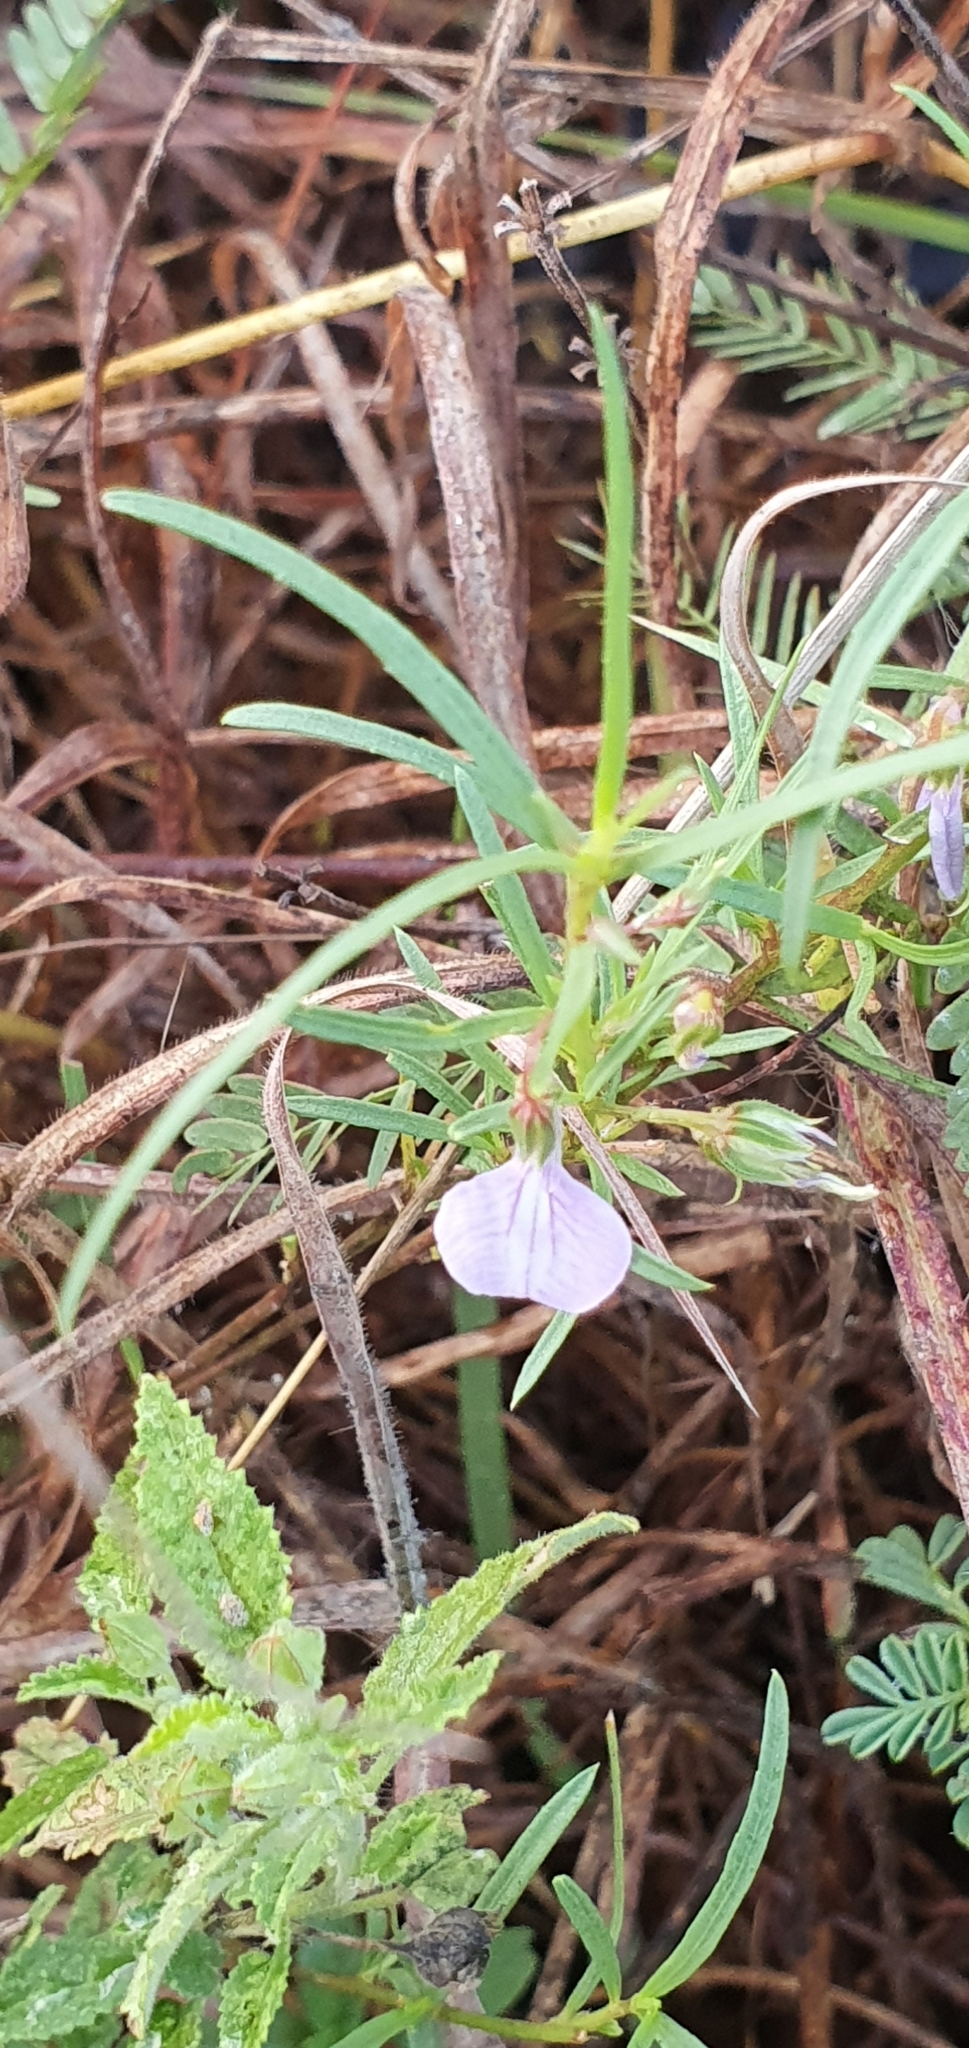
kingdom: Plantae
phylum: Tracheophyta
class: Magnoliopsida
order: Malpighiales
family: Violaceae
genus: Pigea
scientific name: Pigea enneasperma
